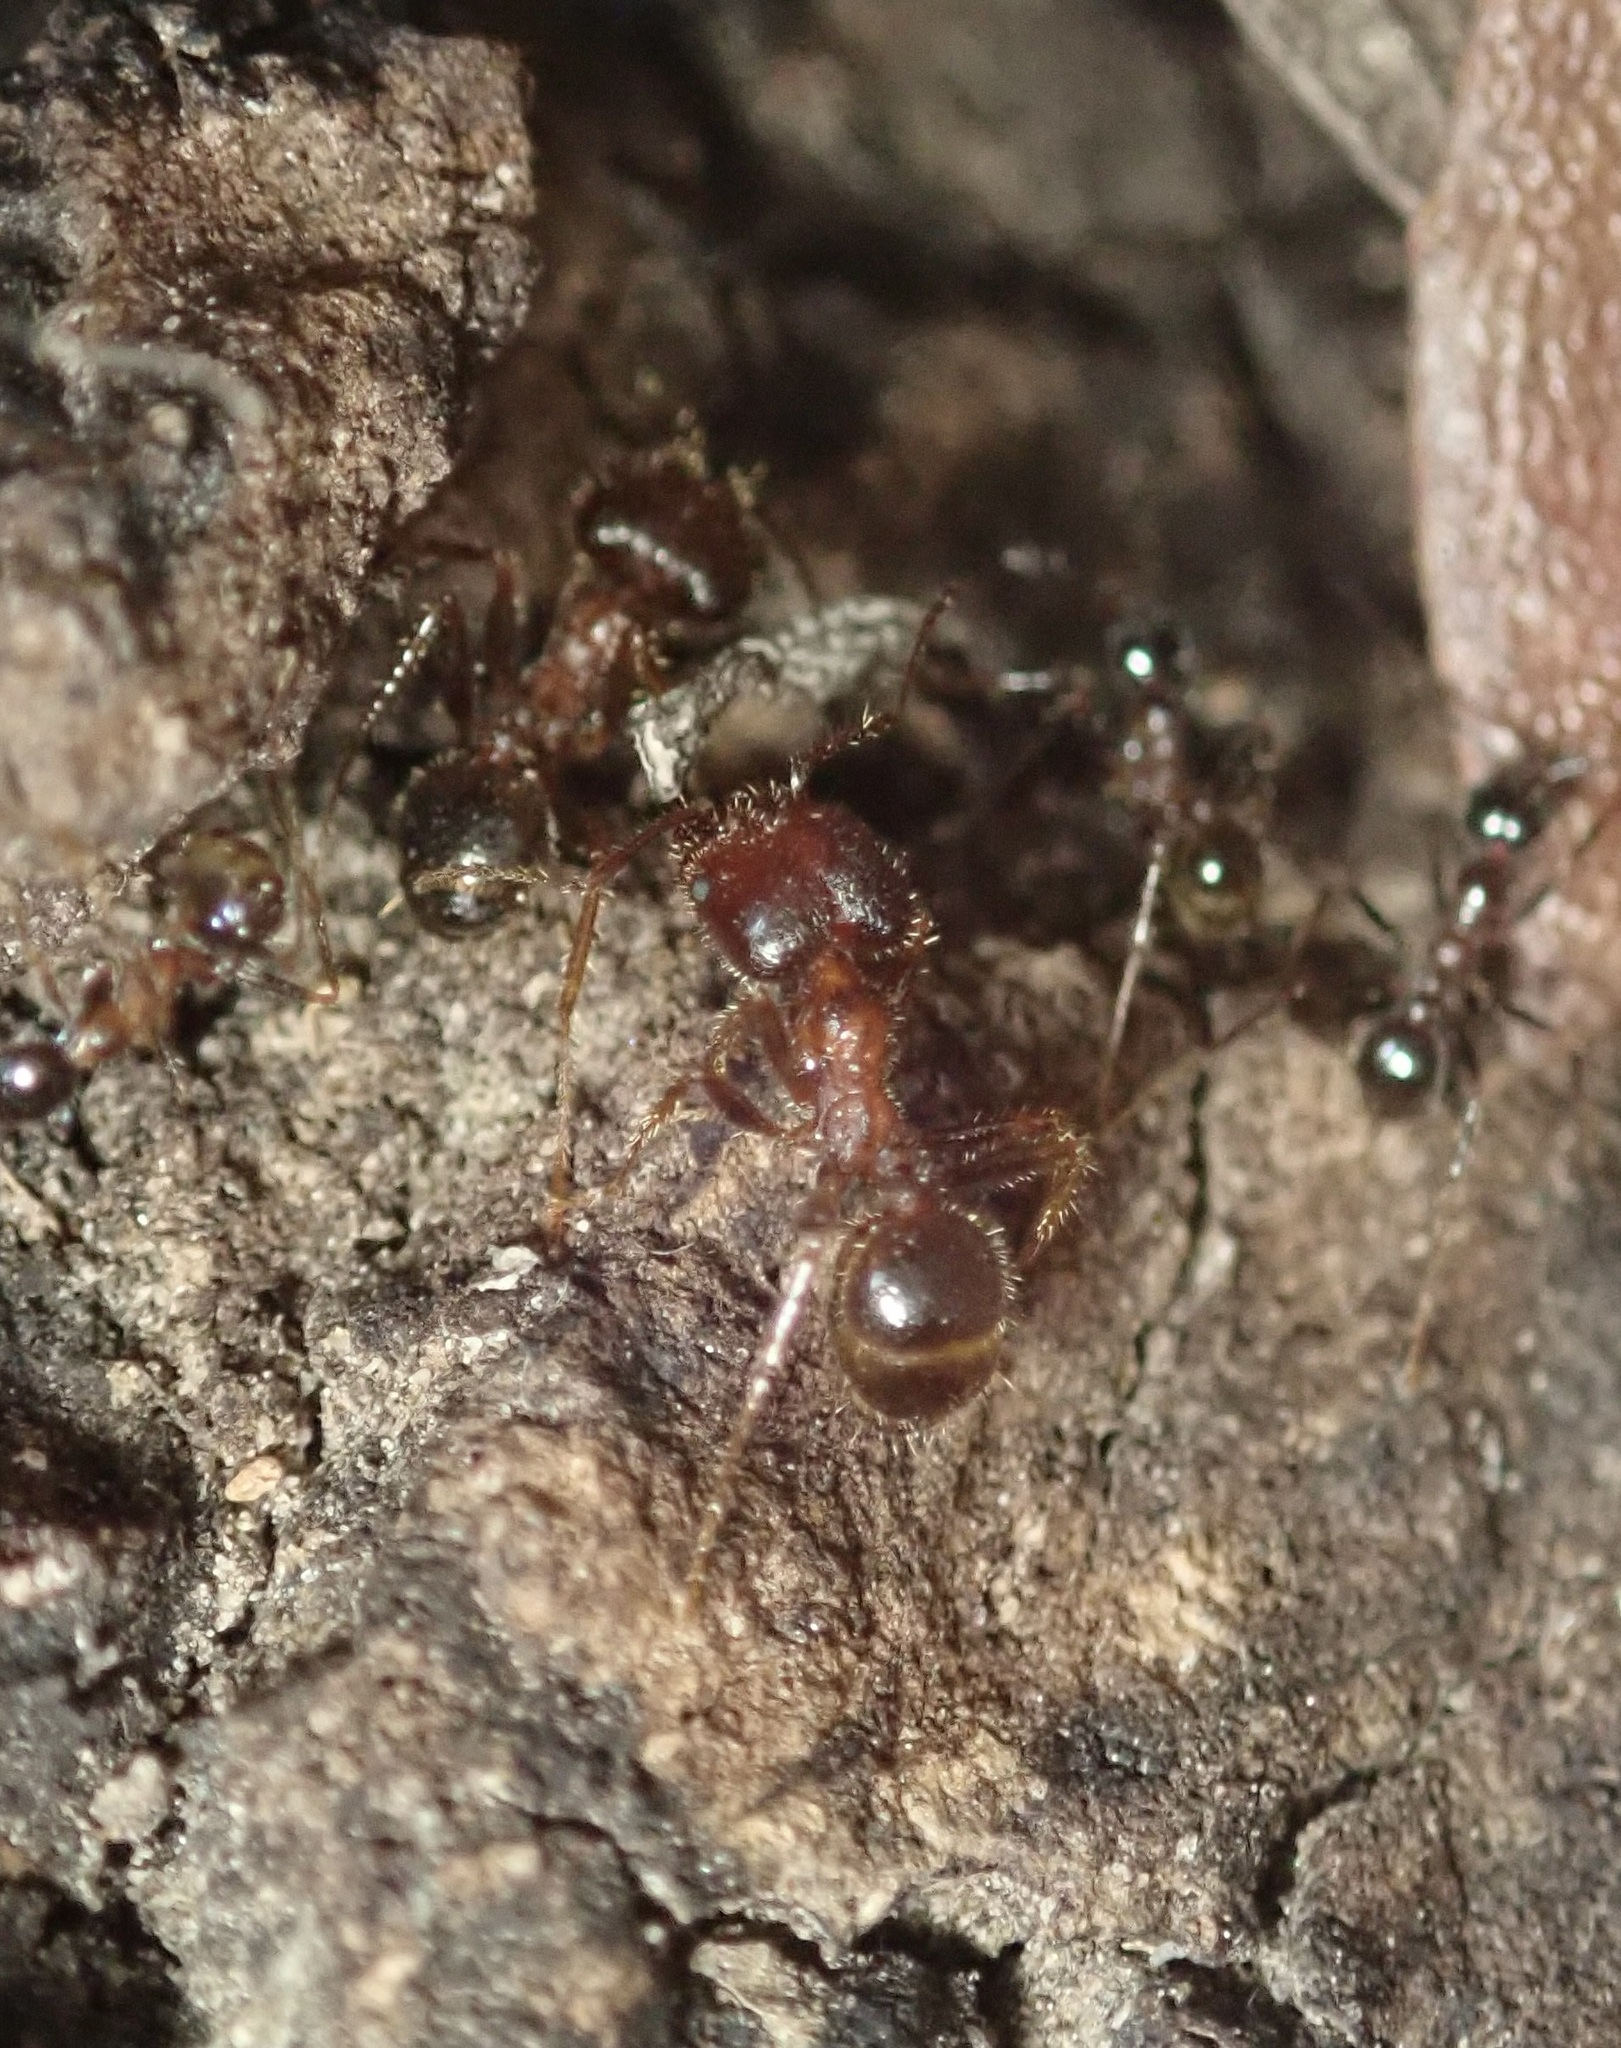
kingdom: Animalia
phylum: Arthropoda
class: Insecta
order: Hymenoptera
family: Formicidae
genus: Pheidole
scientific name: Pheidole obtusospinosa
